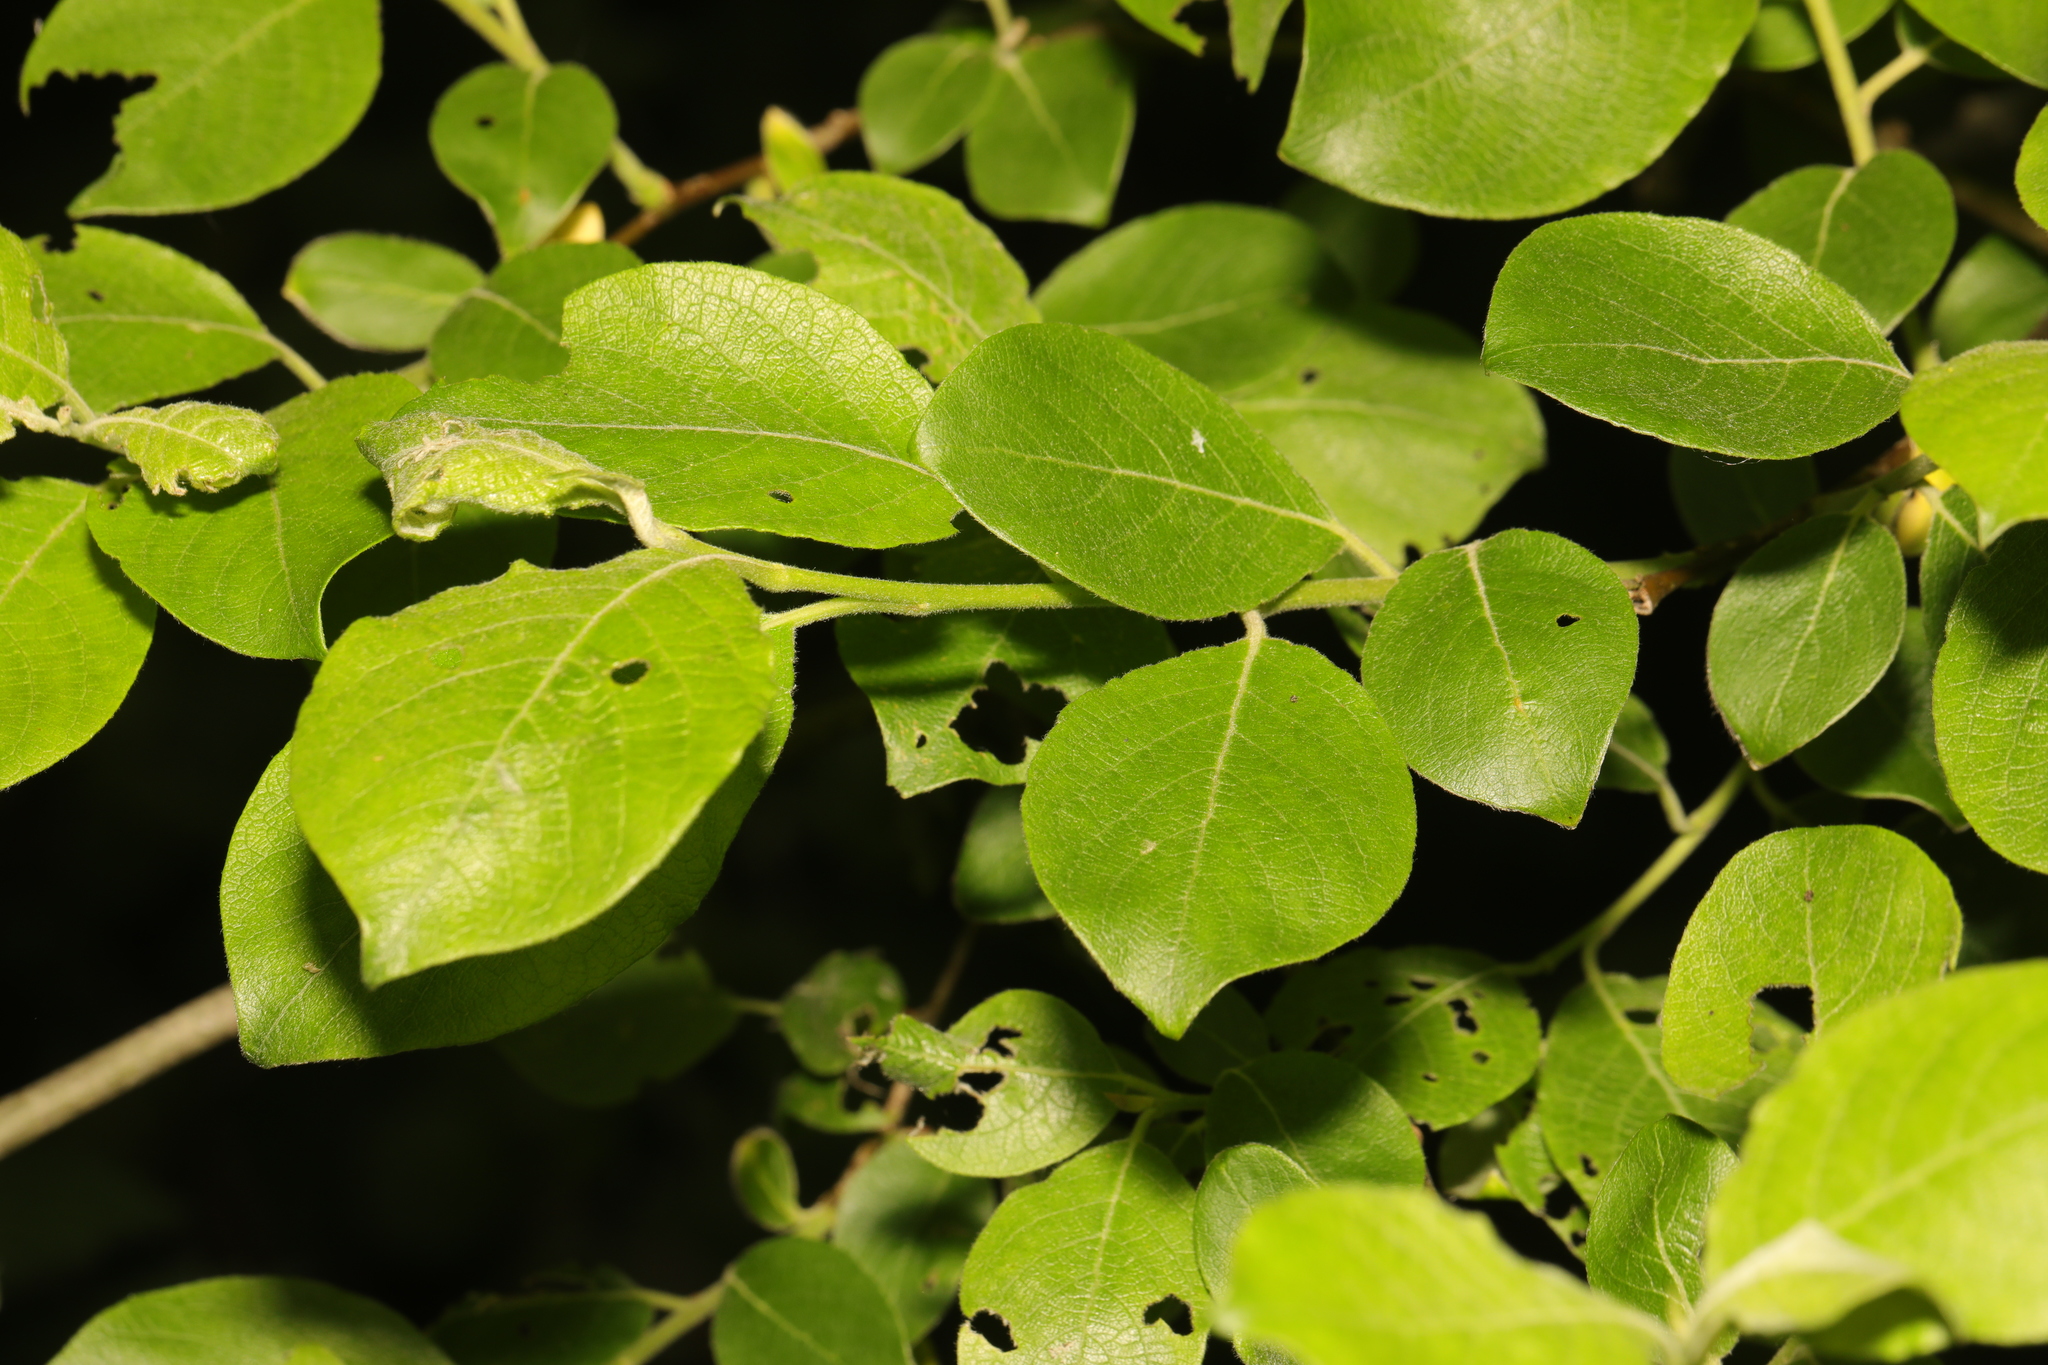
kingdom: Plantae
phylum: Tracheophyta
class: Magnoliopsida
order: Malpighiales
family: Salicaceae
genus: Salix
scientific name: Salix caprea
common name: Goat willow
